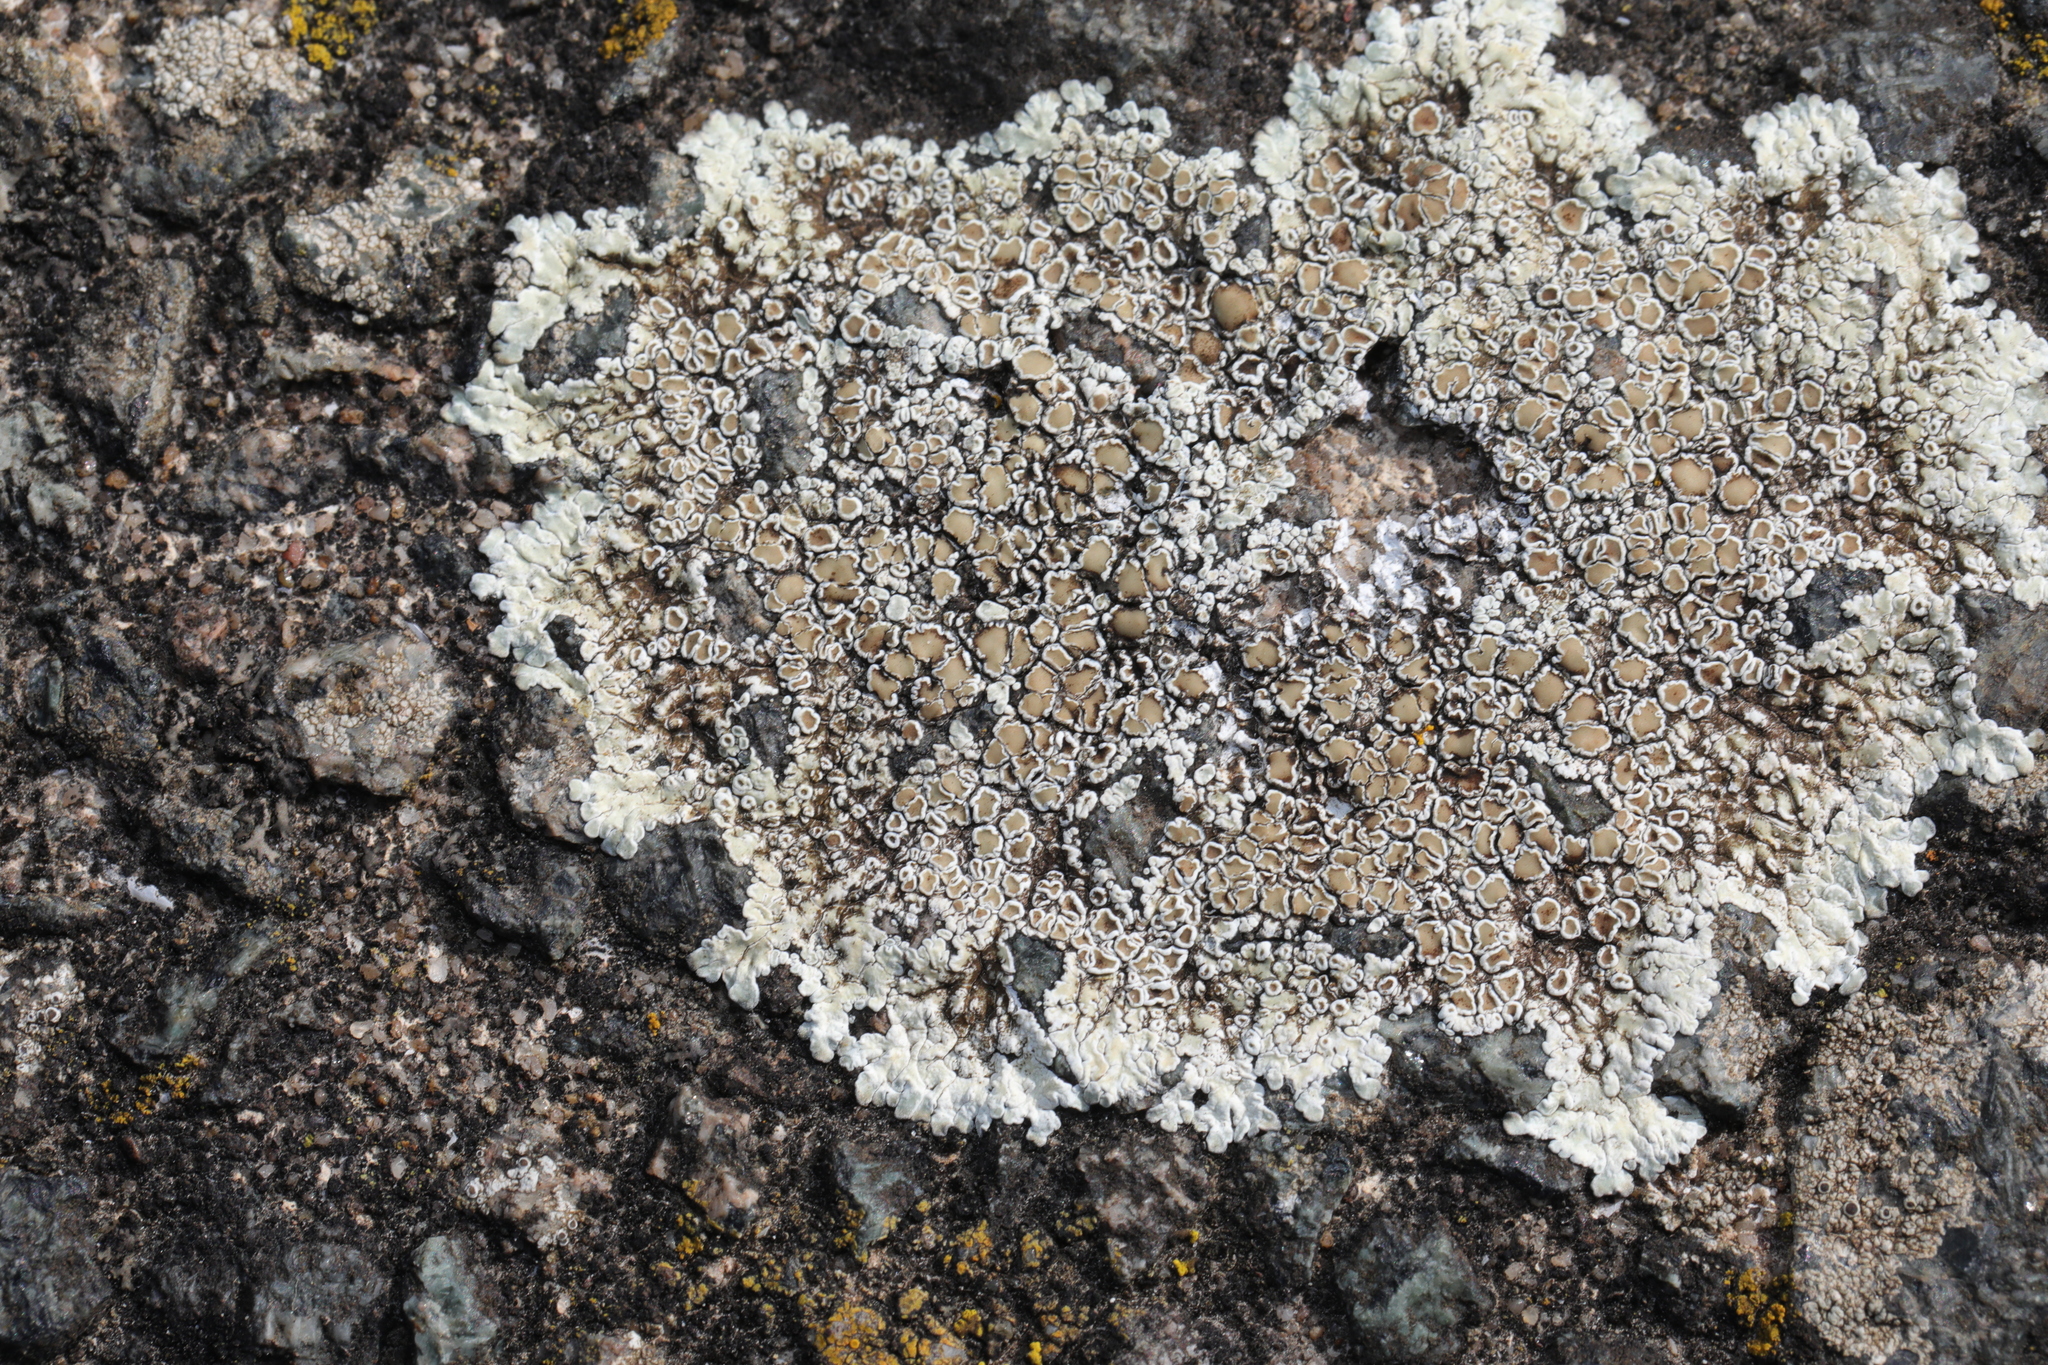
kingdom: Fungi
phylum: Ascomycota
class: Lecanoromycetes
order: Lecanorales
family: Lecanoraceae
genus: Protoparmeliopsis
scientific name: Protoparmeliopsis muralis
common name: Stonewall rim lichen
